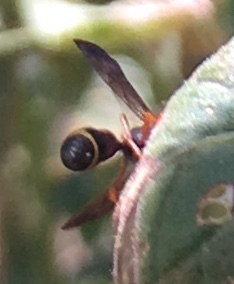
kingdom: Animalia
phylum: Arthropoda
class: Insecta
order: Hymenoptera
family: Eumenidae
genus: Parancistrocerus
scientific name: Parancistrocerus perennis
